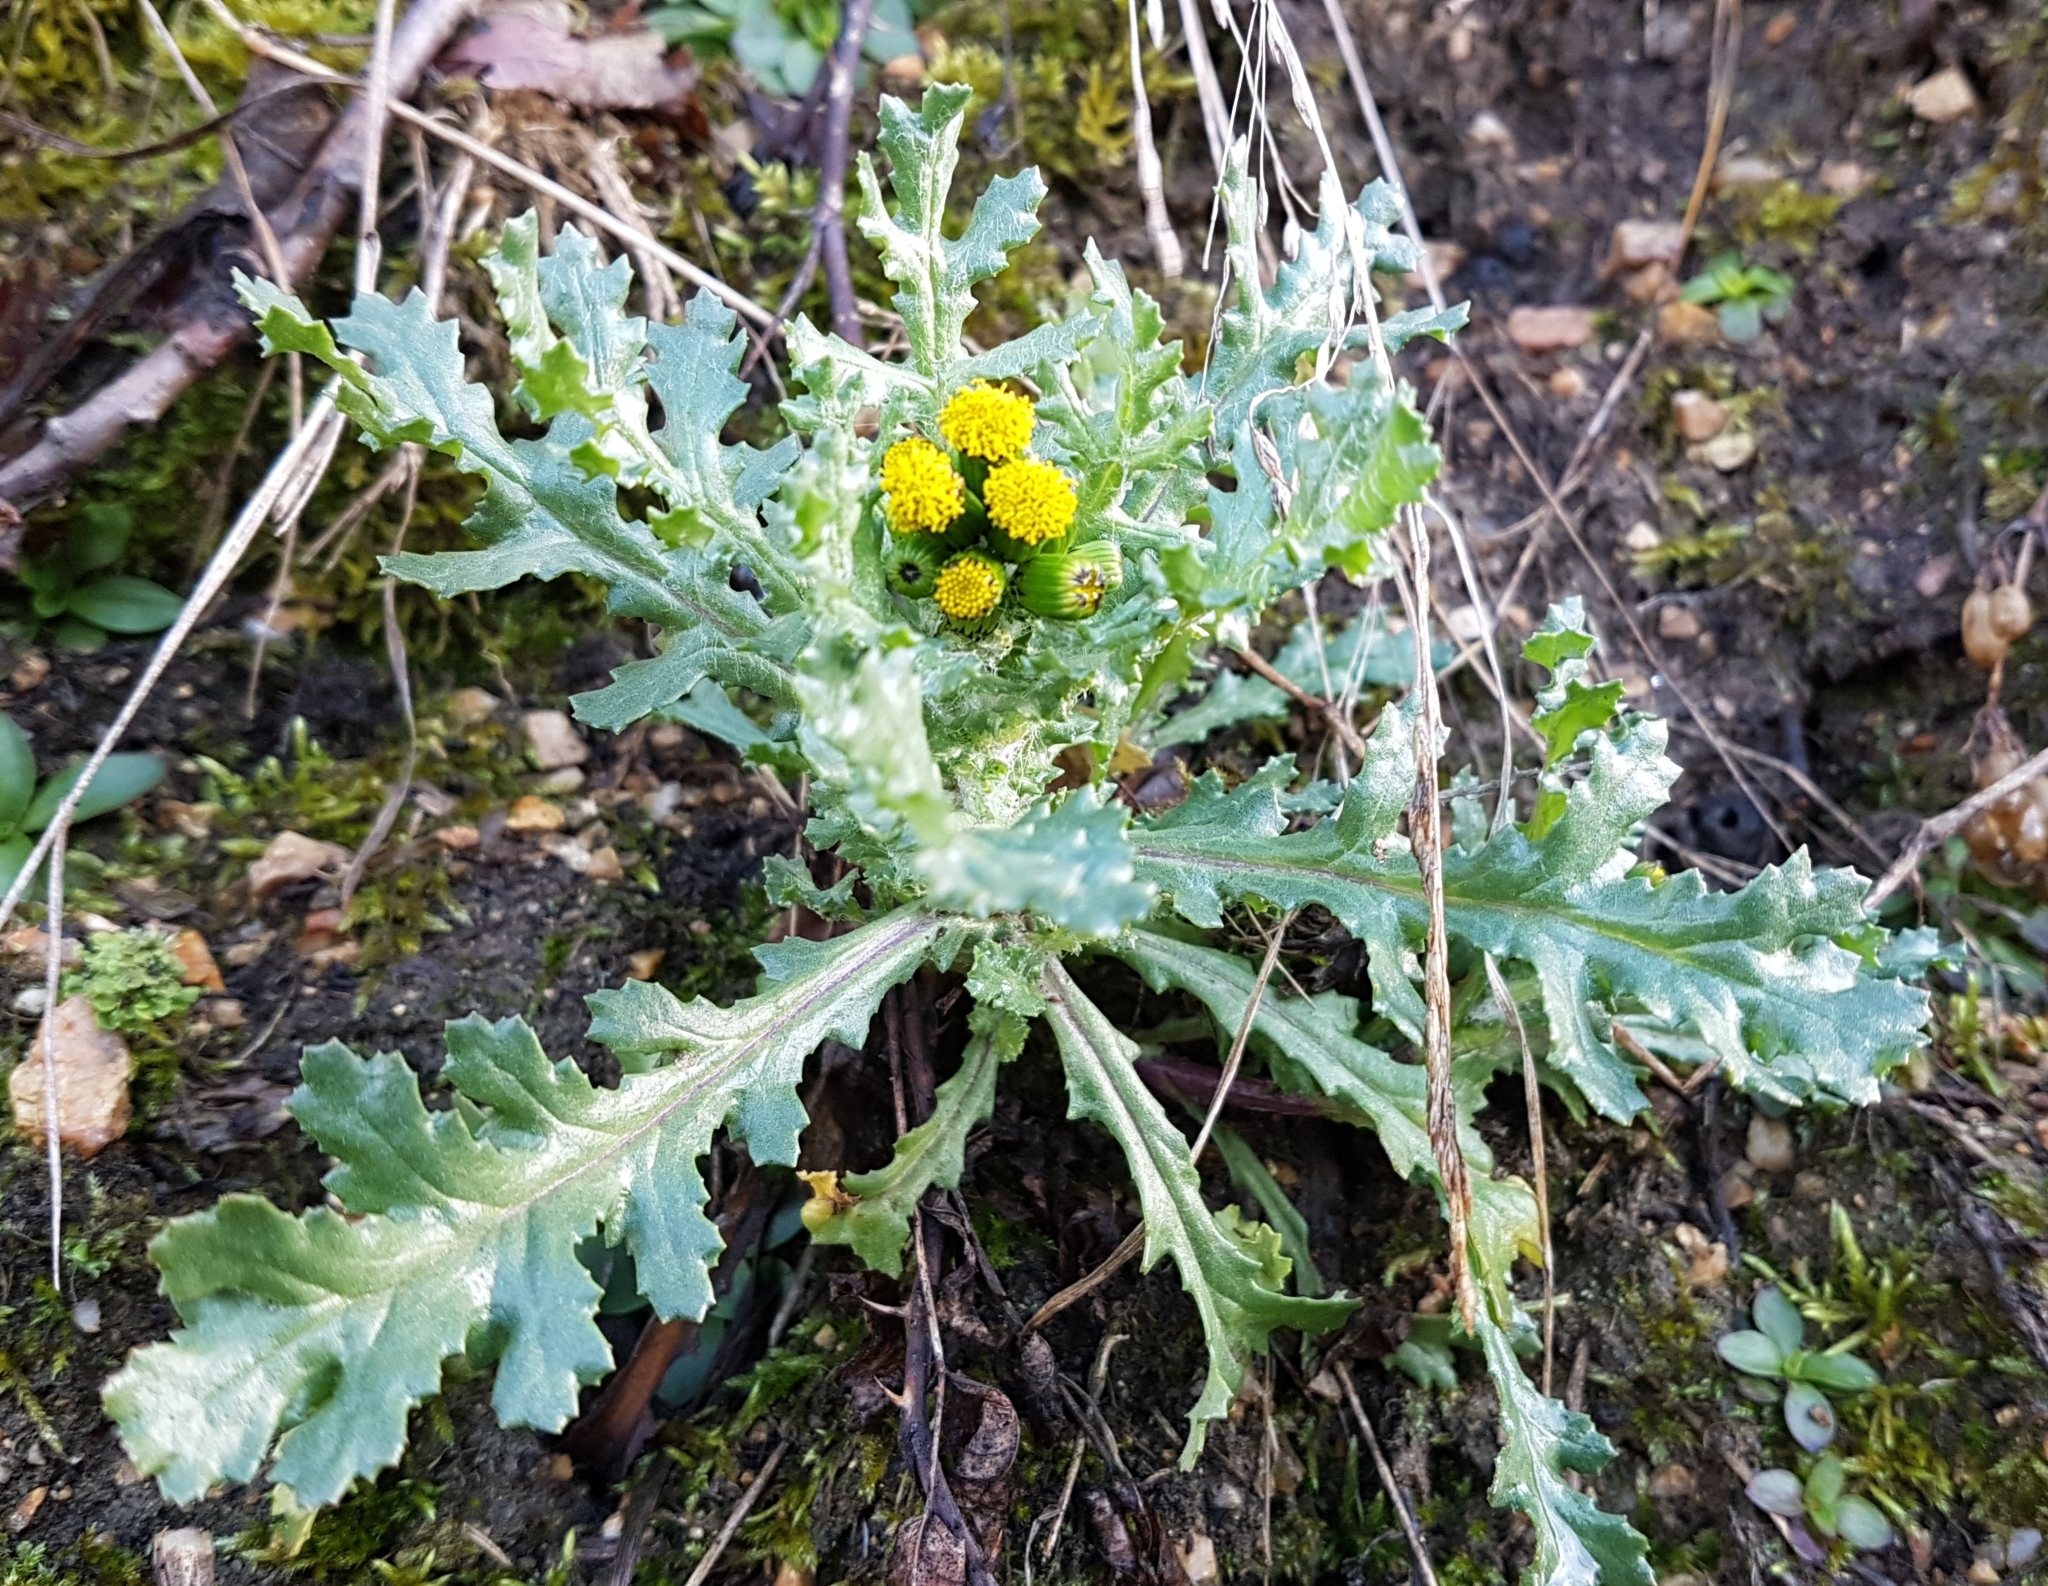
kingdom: Plantae
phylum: Tracheophyta
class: Magnoliopsida
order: Asterales
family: Asteraceae
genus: Senecio
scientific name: Senecio vulgaris
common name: Old-man-in-the-spring
